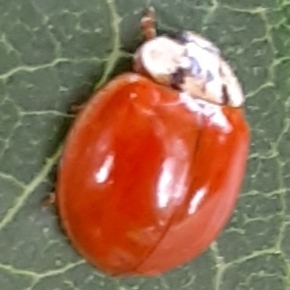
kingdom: Animalia
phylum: Arthropoda
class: Insecta
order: Coleoptera
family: Coccinellidae
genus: Harmonia
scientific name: Harmonia axyridis
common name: Harlequin ladybird
